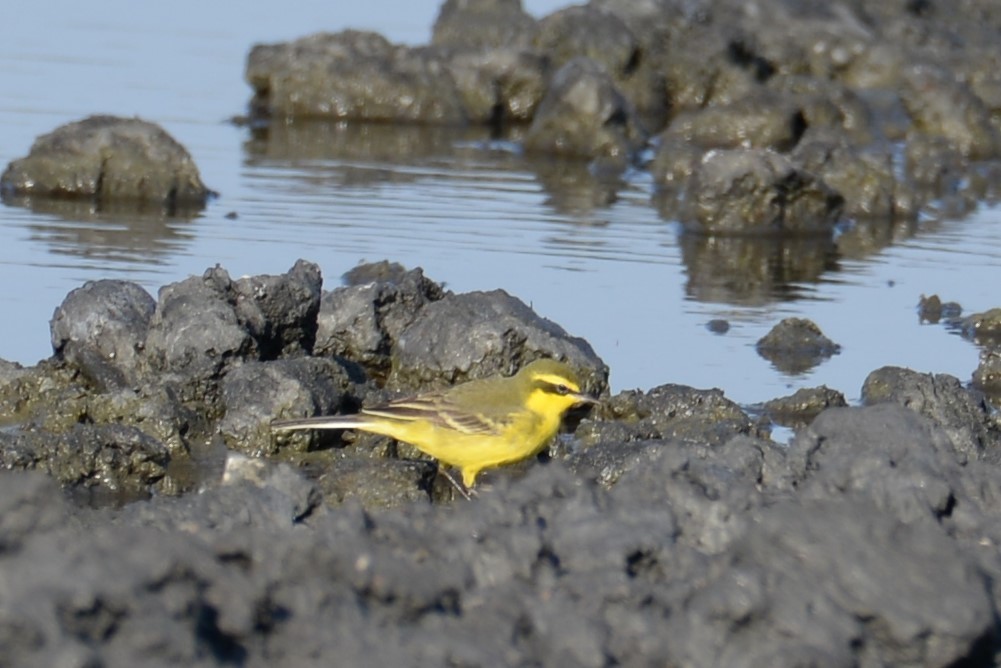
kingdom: Animalia
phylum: Chordata
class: Aves
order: Passeriformes
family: Motacillidae
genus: Motacilla
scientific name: Motacilla tschutschensis
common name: Eastern yellow wagtail
